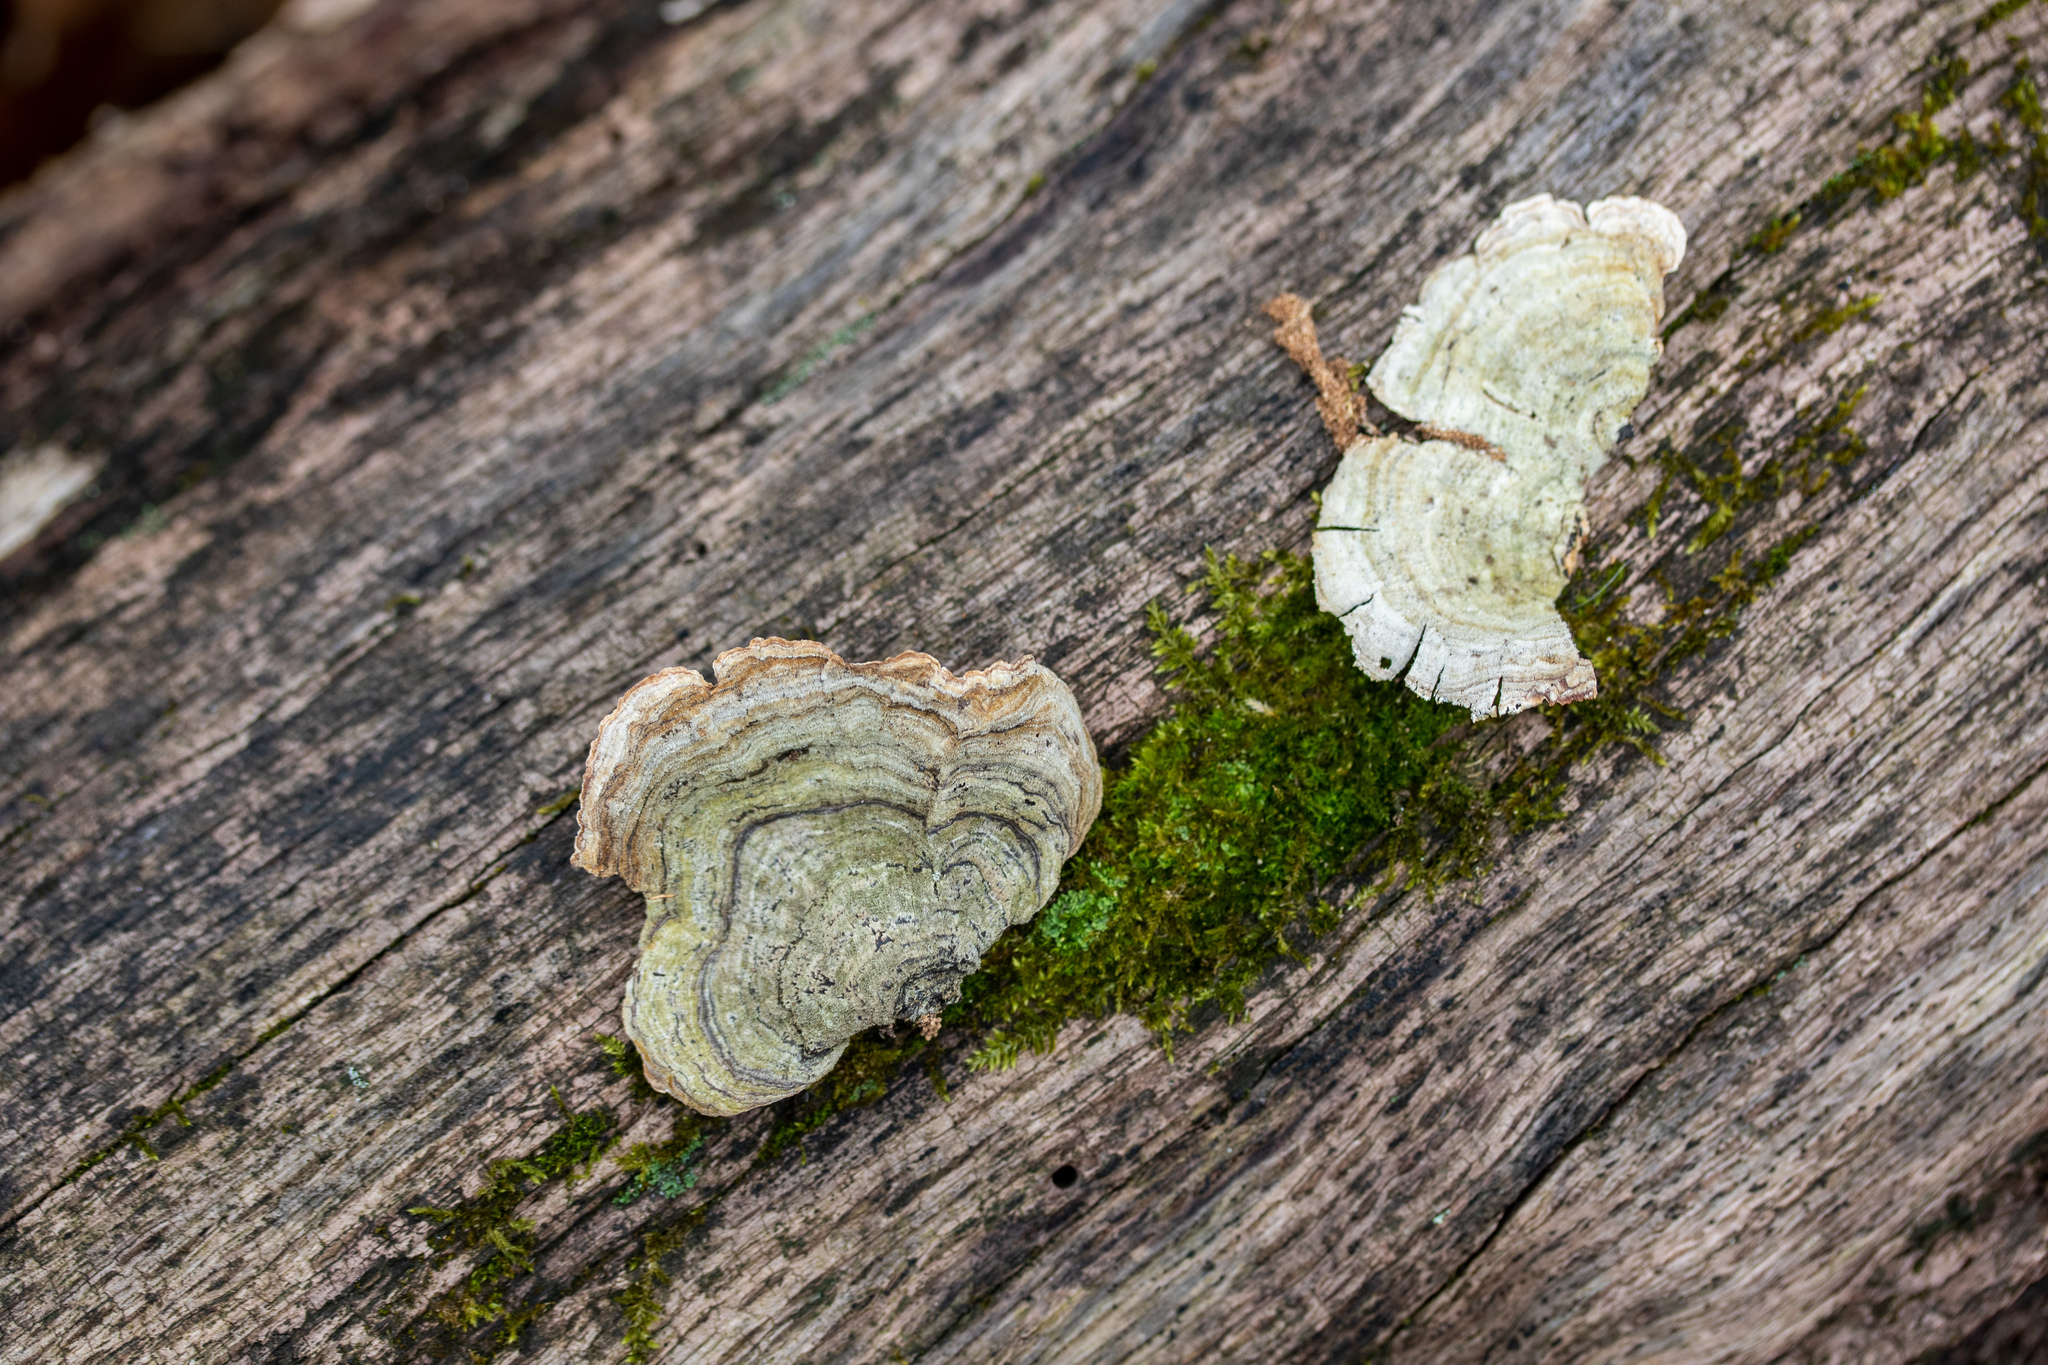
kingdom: Fungi
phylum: Basidiomycota
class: Agaricomycetes
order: Russulales
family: Stereaceae
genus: Stereum
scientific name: Stereum ostrea
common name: False turkeytail
